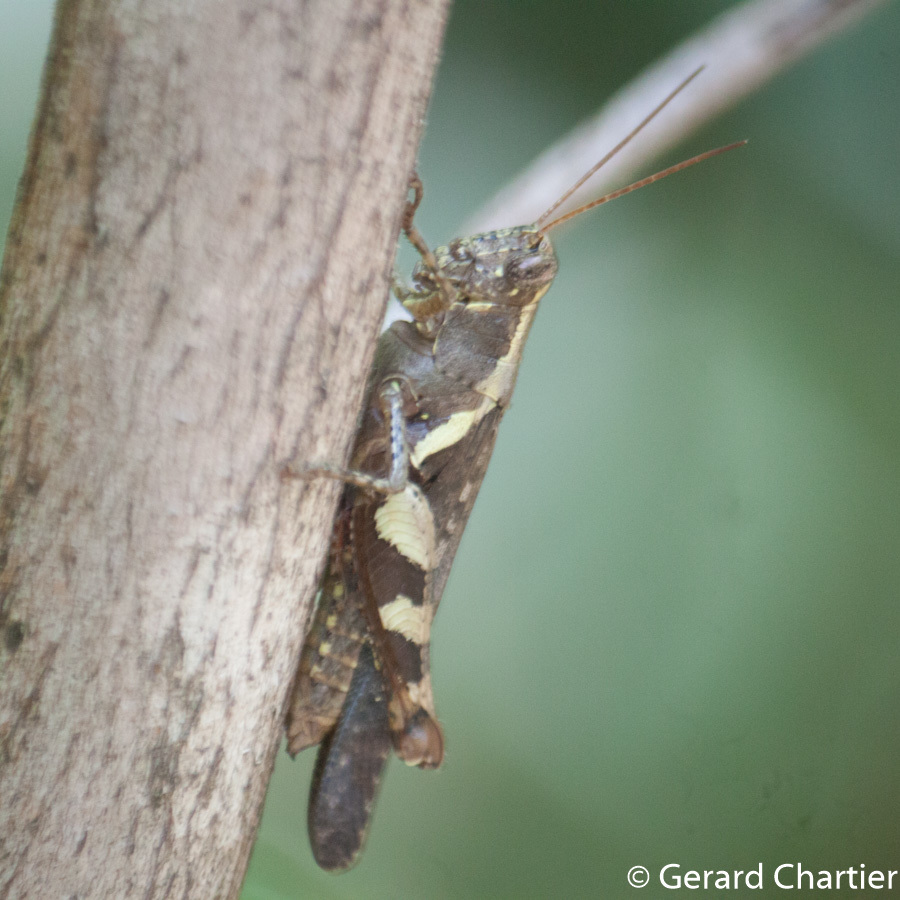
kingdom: Animalia
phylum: Arthropoda
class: Insecta
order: Orthoptera
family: Acrididae
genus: Xenocatantops
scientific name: Xenocatantops humile
